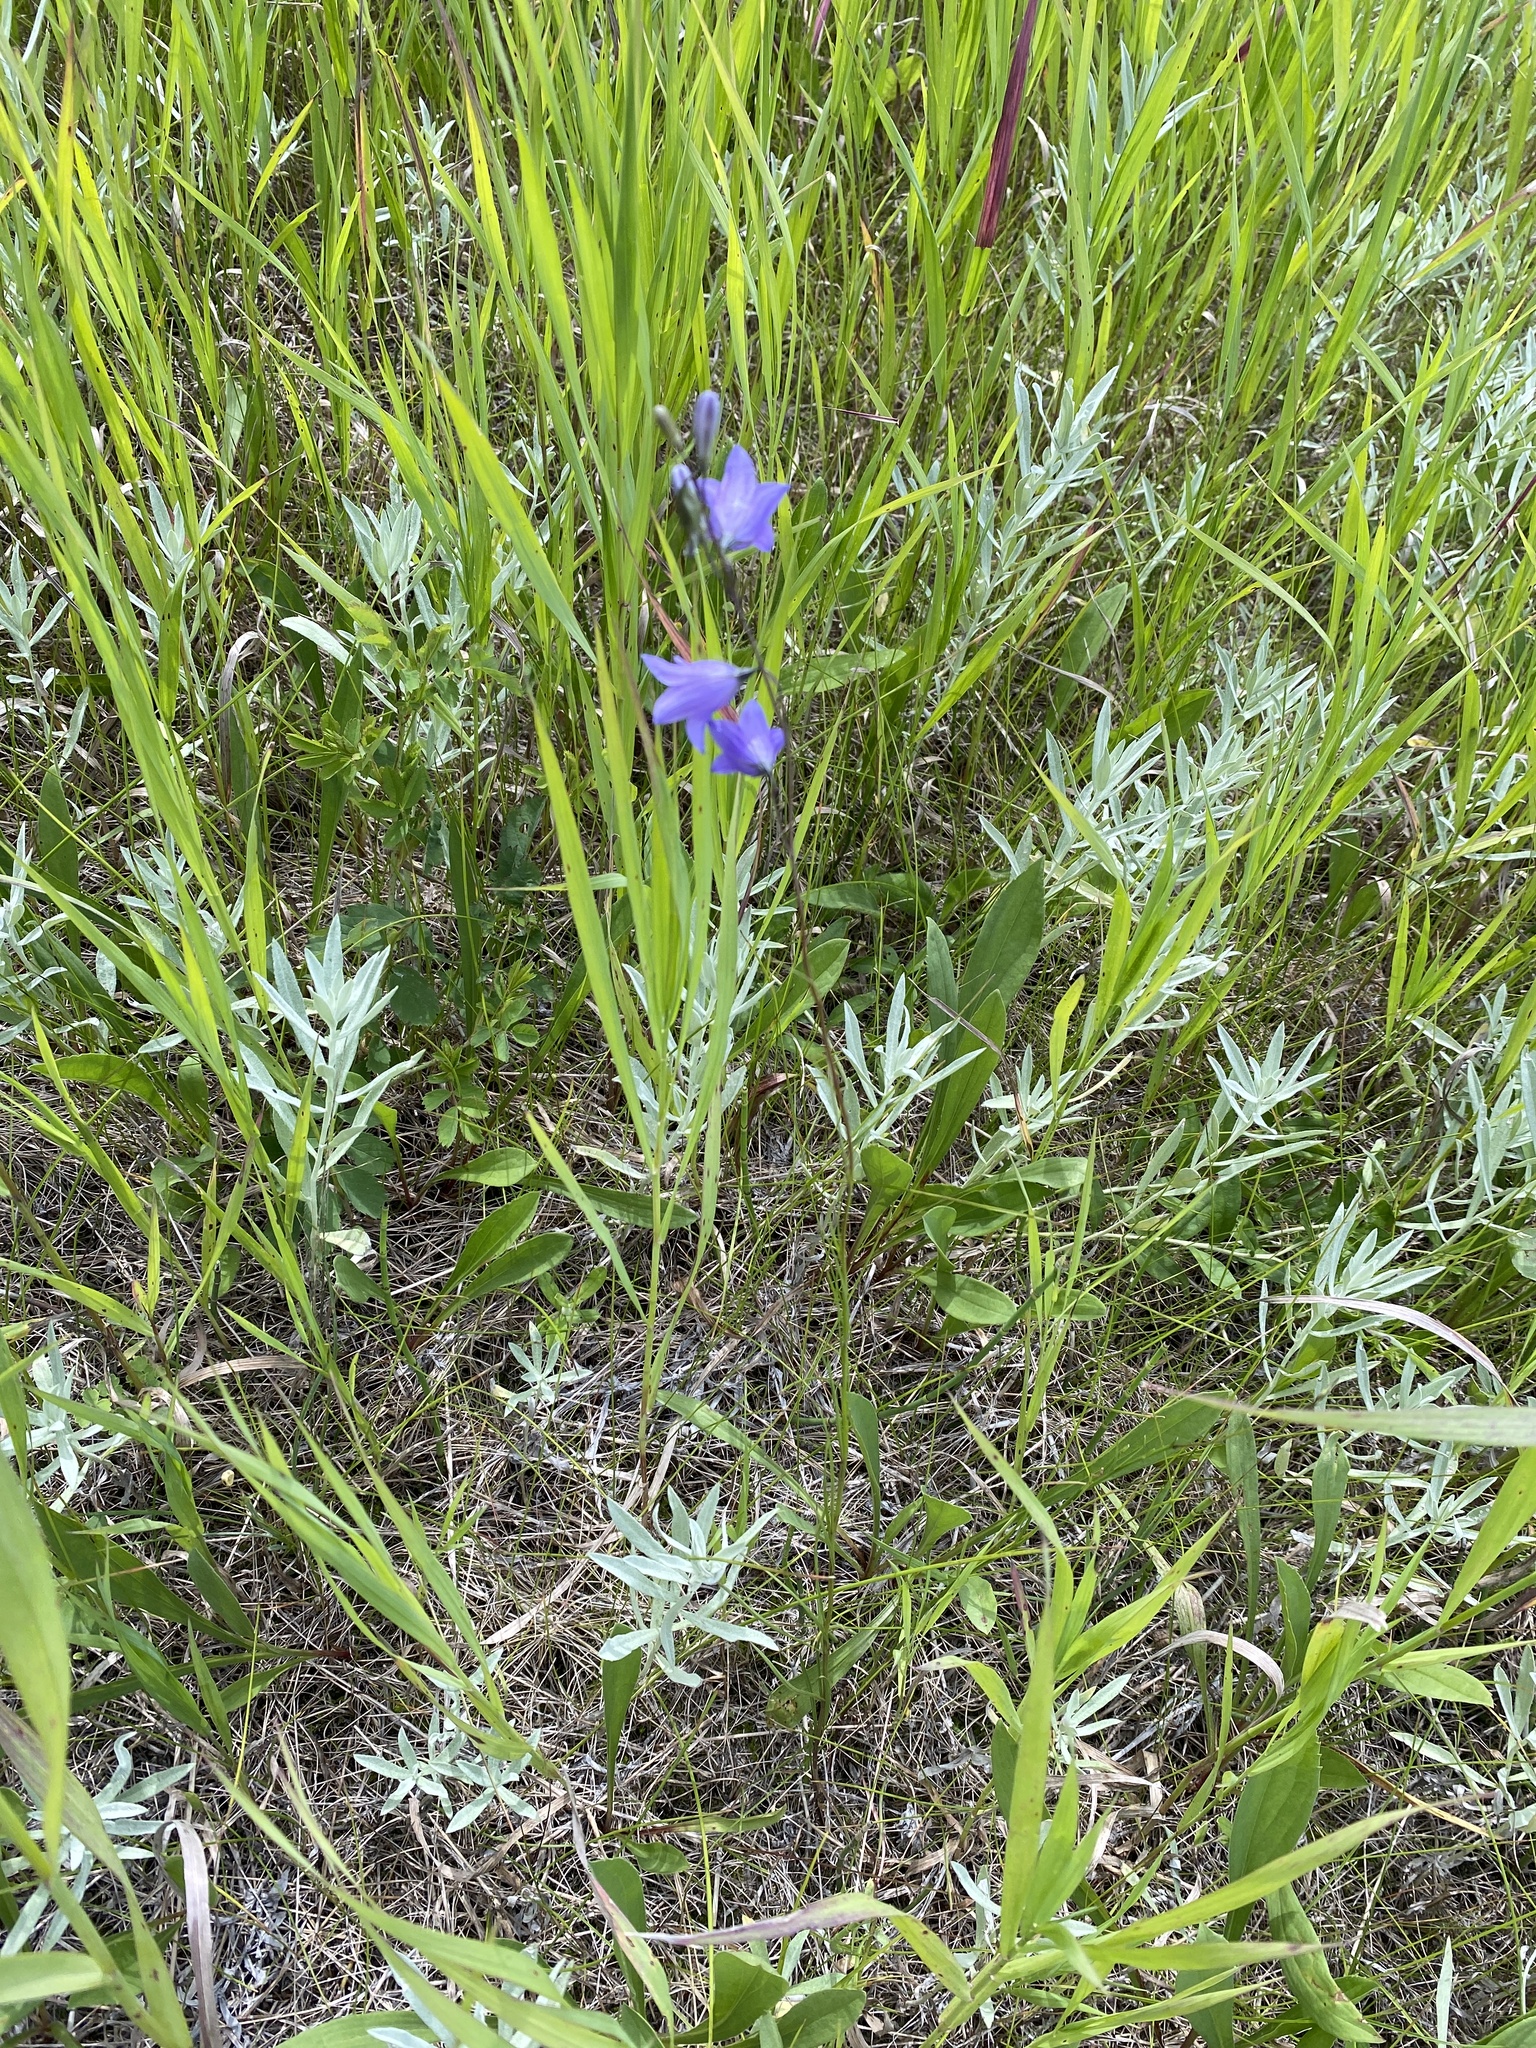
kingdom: Plantae
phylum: Tracheophyta
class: Magnoliopsida
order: Asterales
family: Campanulaceae
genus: Campanula
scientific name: Campanula petiolata
